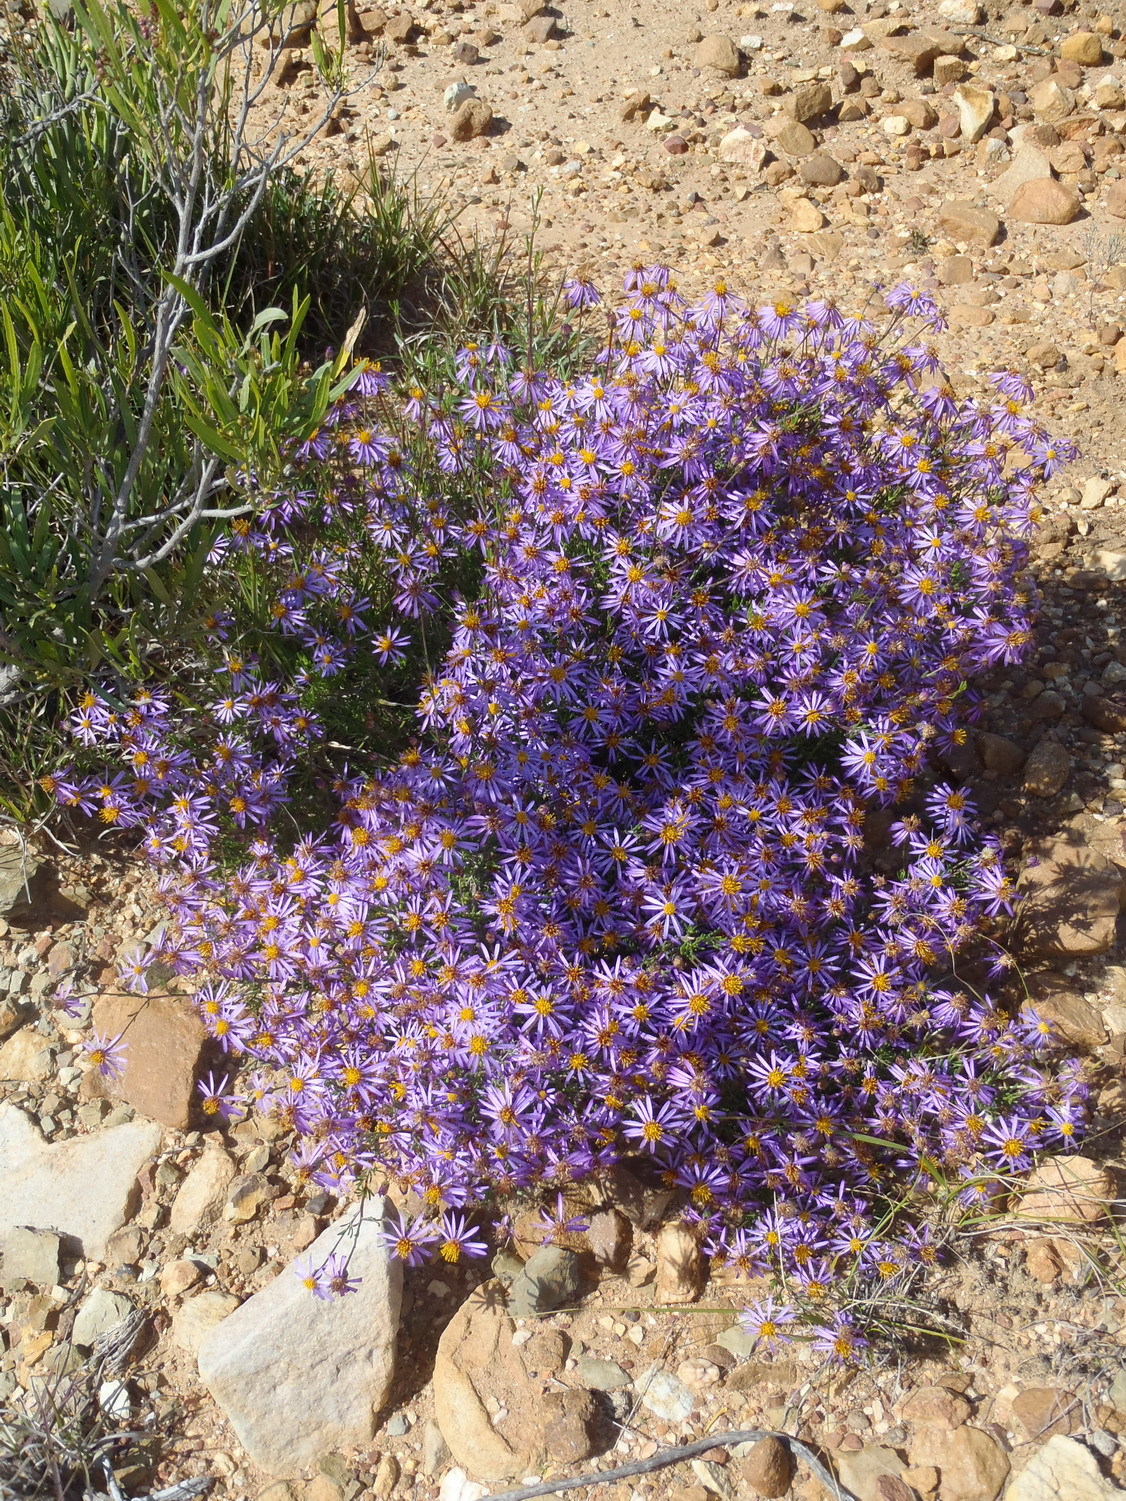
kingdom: Plantae
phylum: Tracheophyta
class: Magnoliopsida
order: Asterales
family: Asteraceae
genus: Felicia
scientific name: Felicia filifolia
